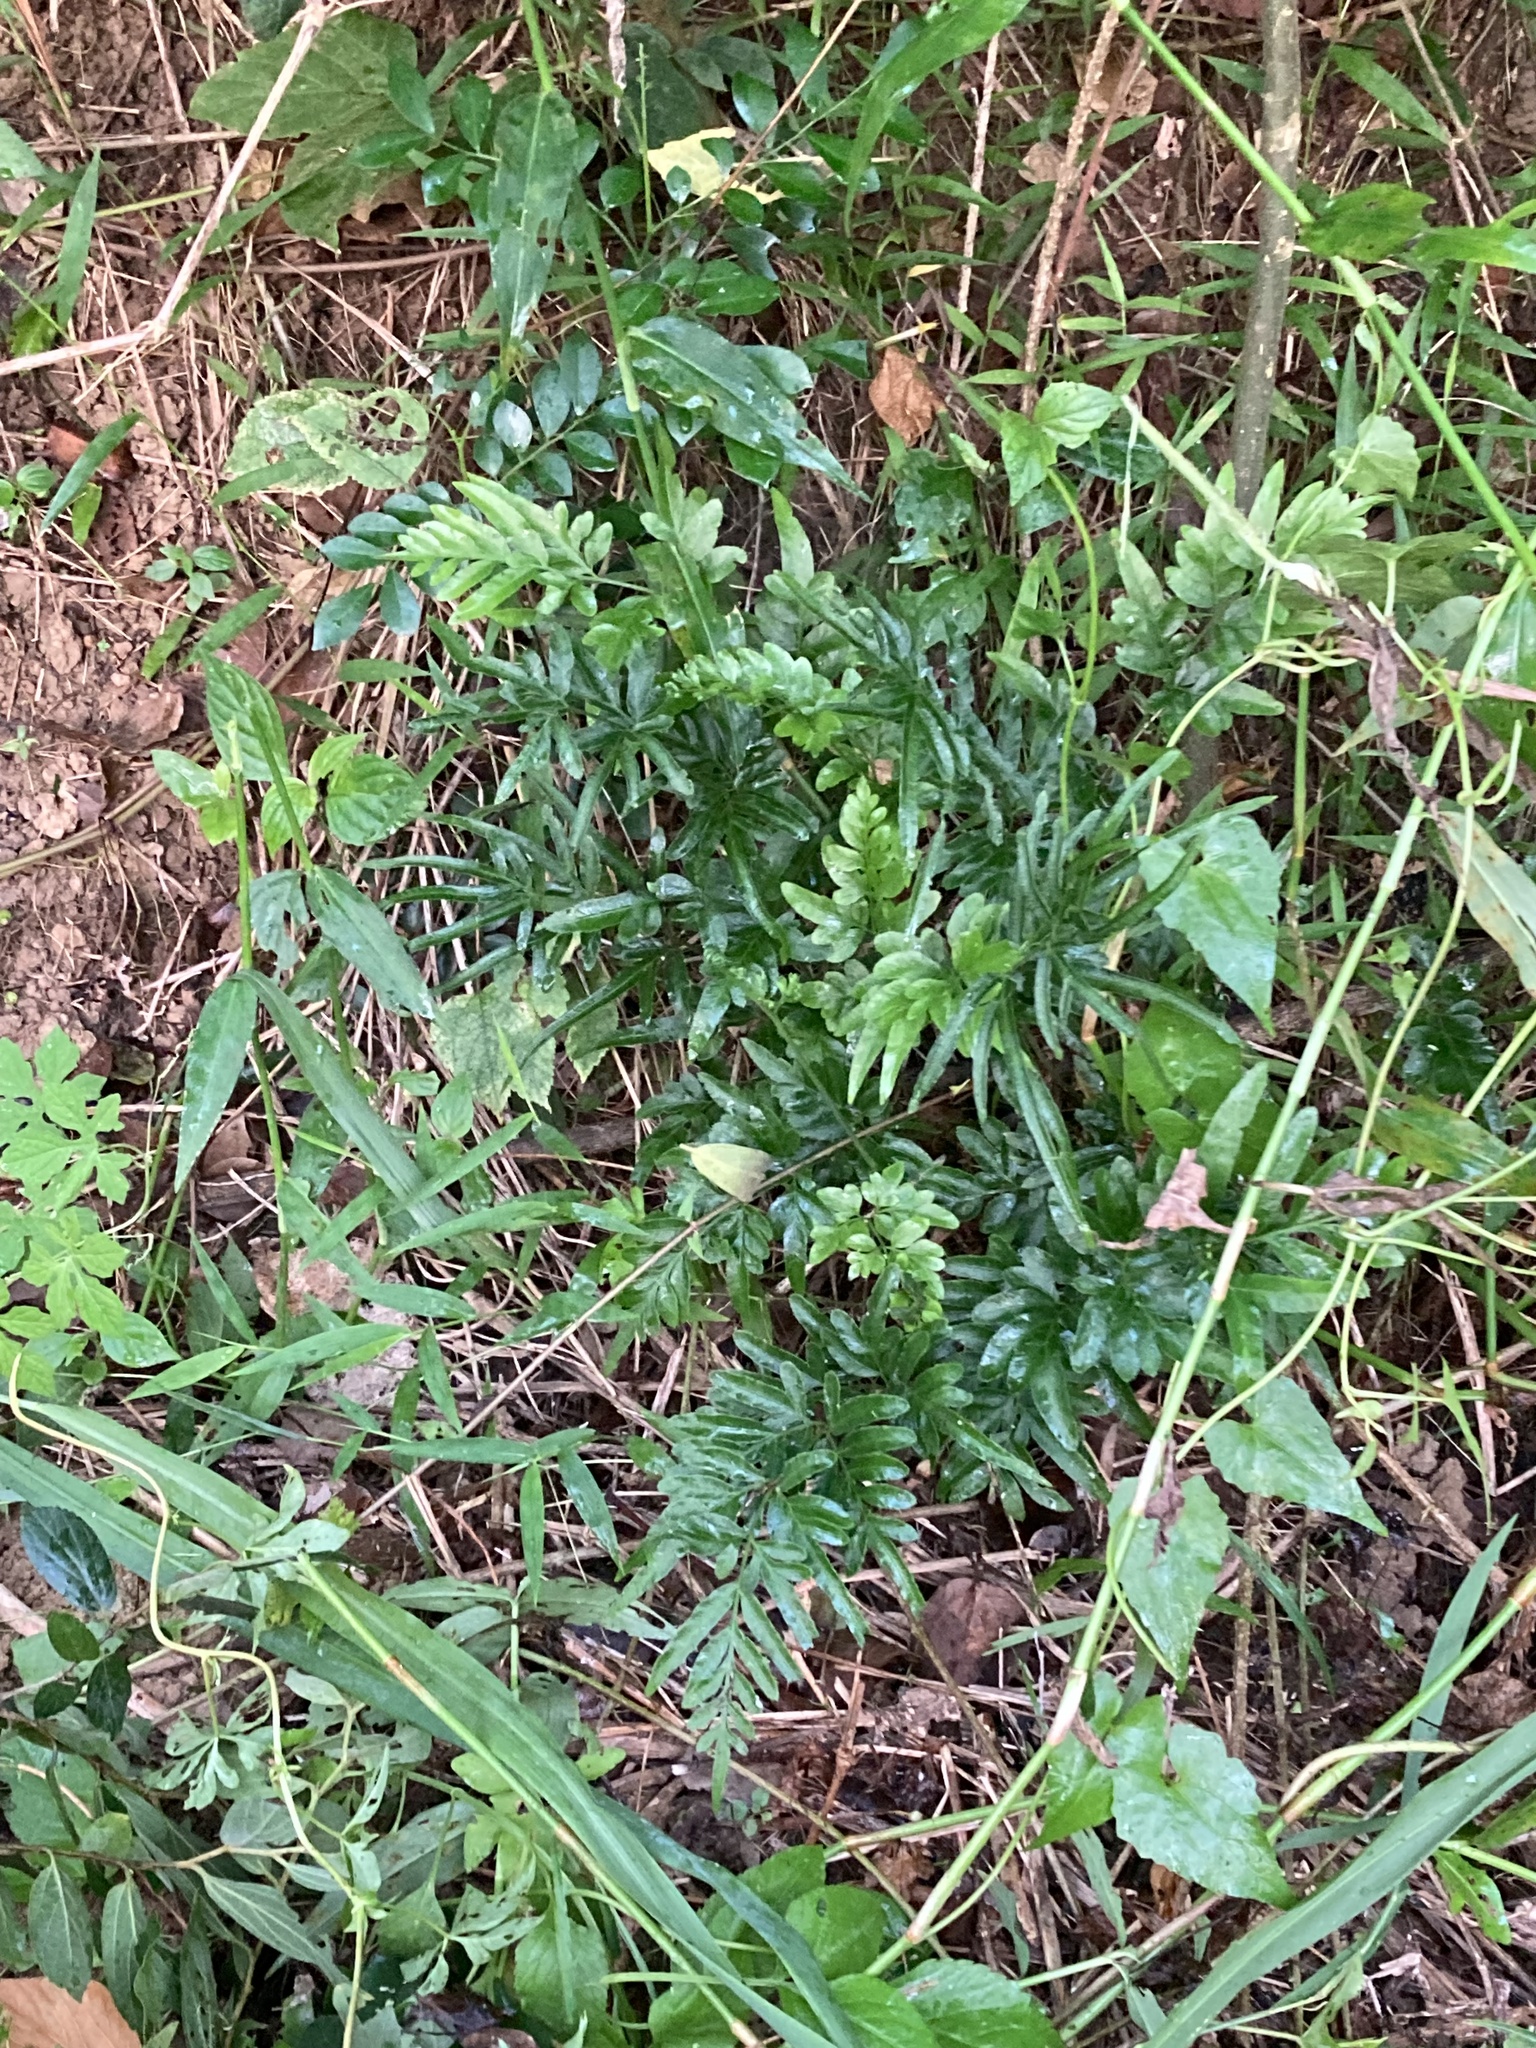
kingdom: Plantae
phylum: Tracheophyta
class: Polypodiopsida
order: Polypodiales
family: Pteridaceae
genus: Pteris
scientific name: Pteris dispar
